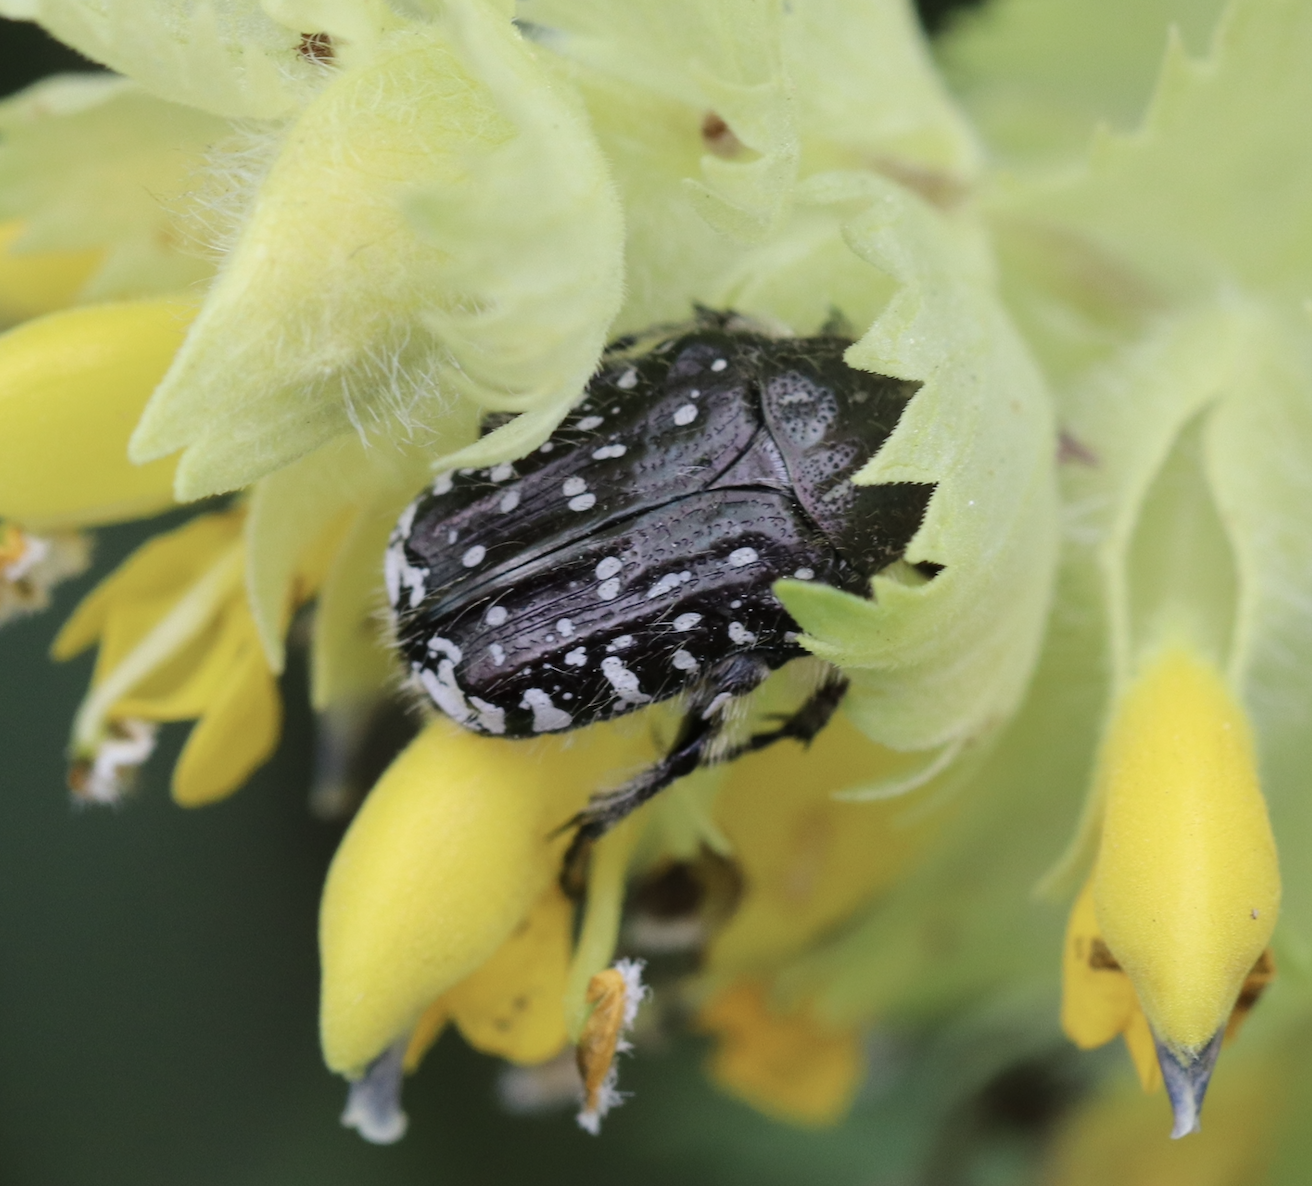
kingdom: Animalia
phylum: Arthropoda
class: Insecta
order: Coleoptera
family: Scarabaeidae
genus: Oxythyrea
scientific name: Oxythyrea funesta
